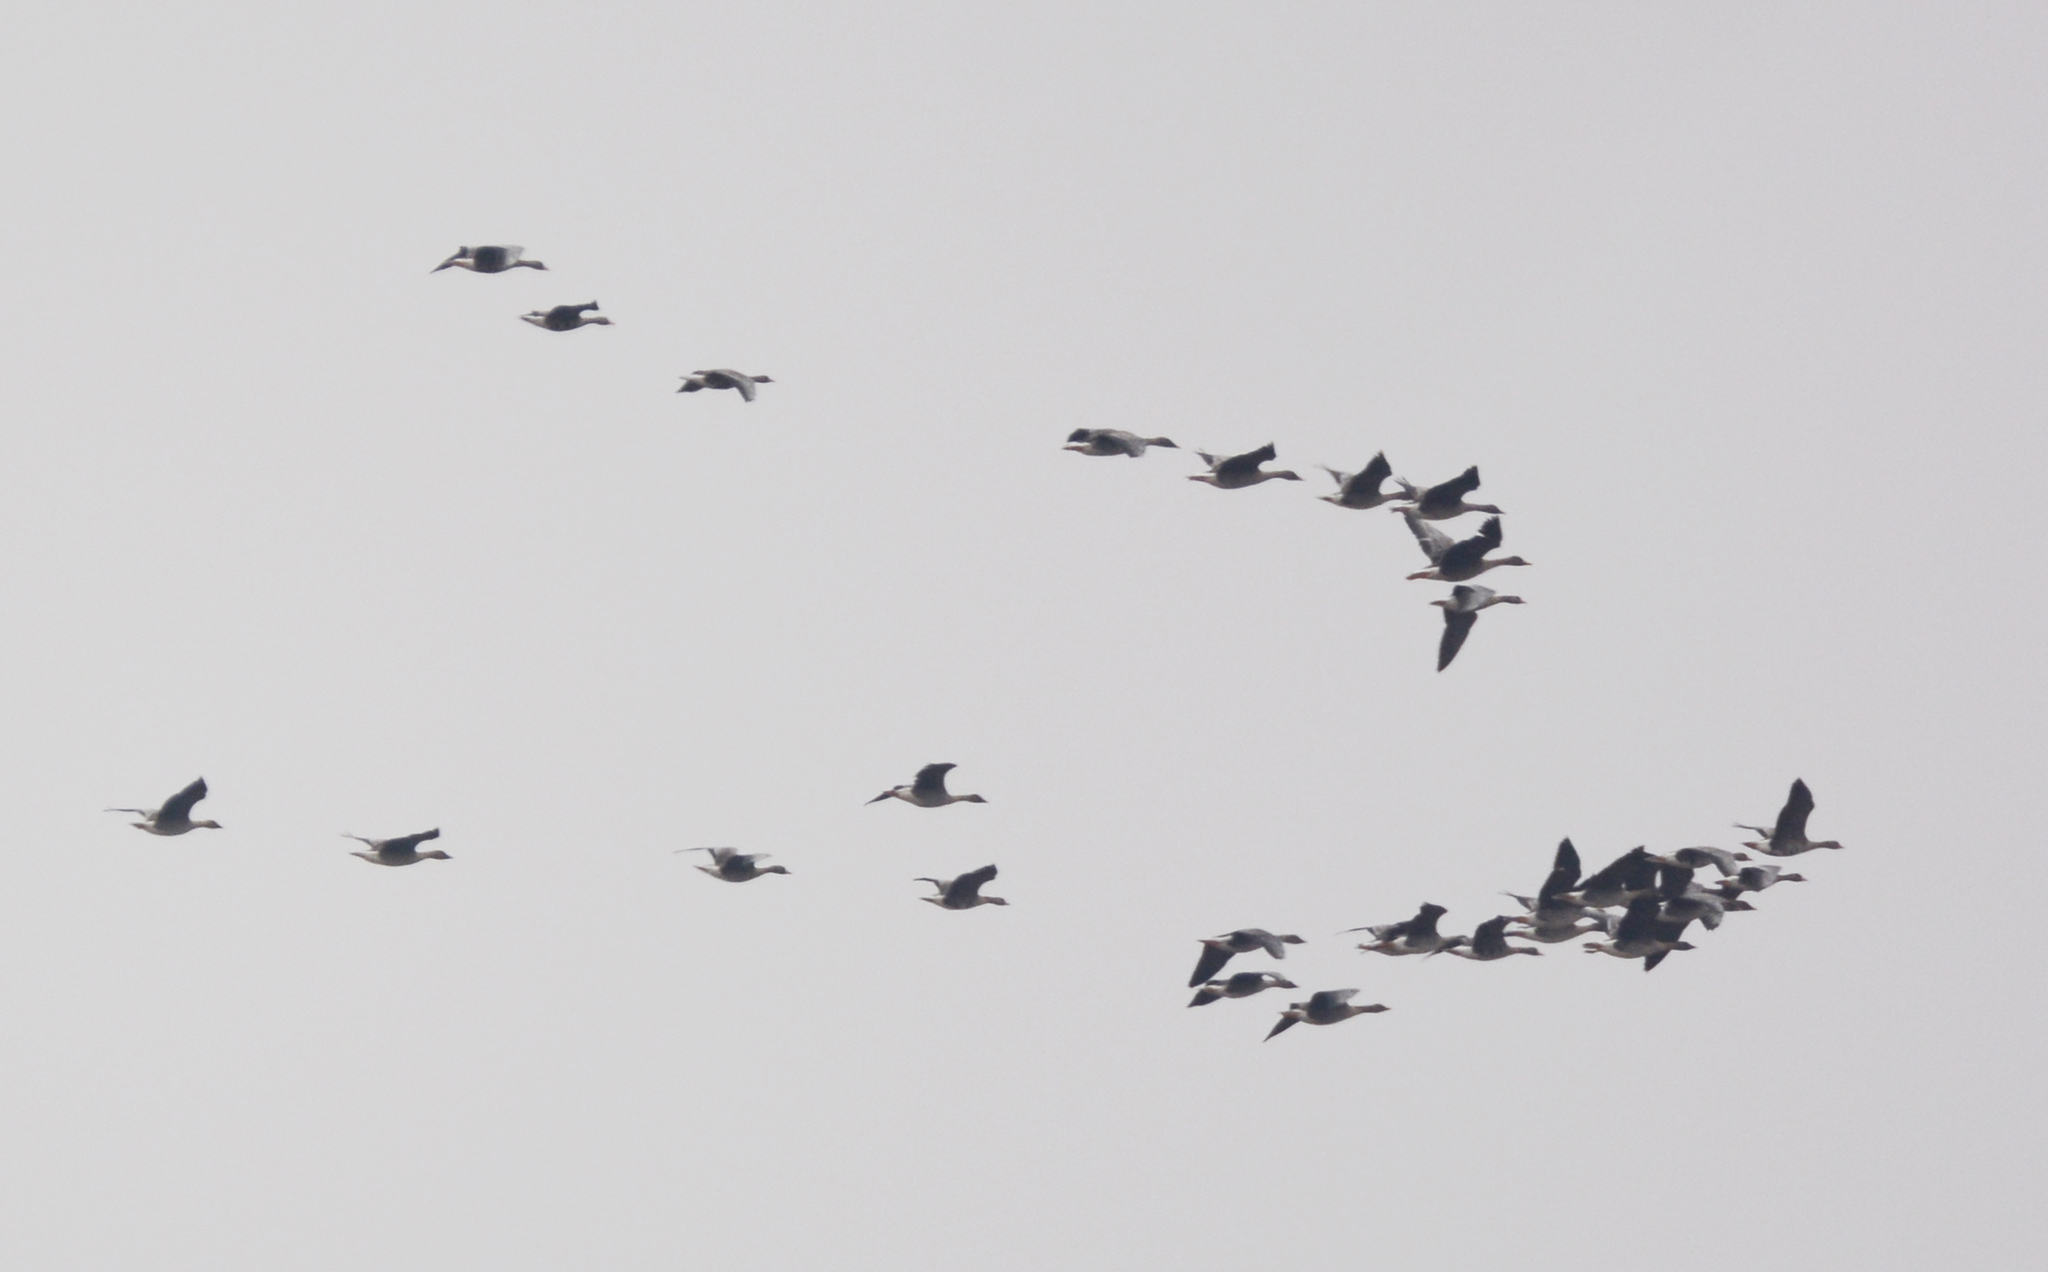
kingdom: Animalia
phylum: Chordata
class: Aves
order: Anseriformes
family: Anatidae
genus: Anser
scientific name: Anser fabalis
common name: Bean goose
